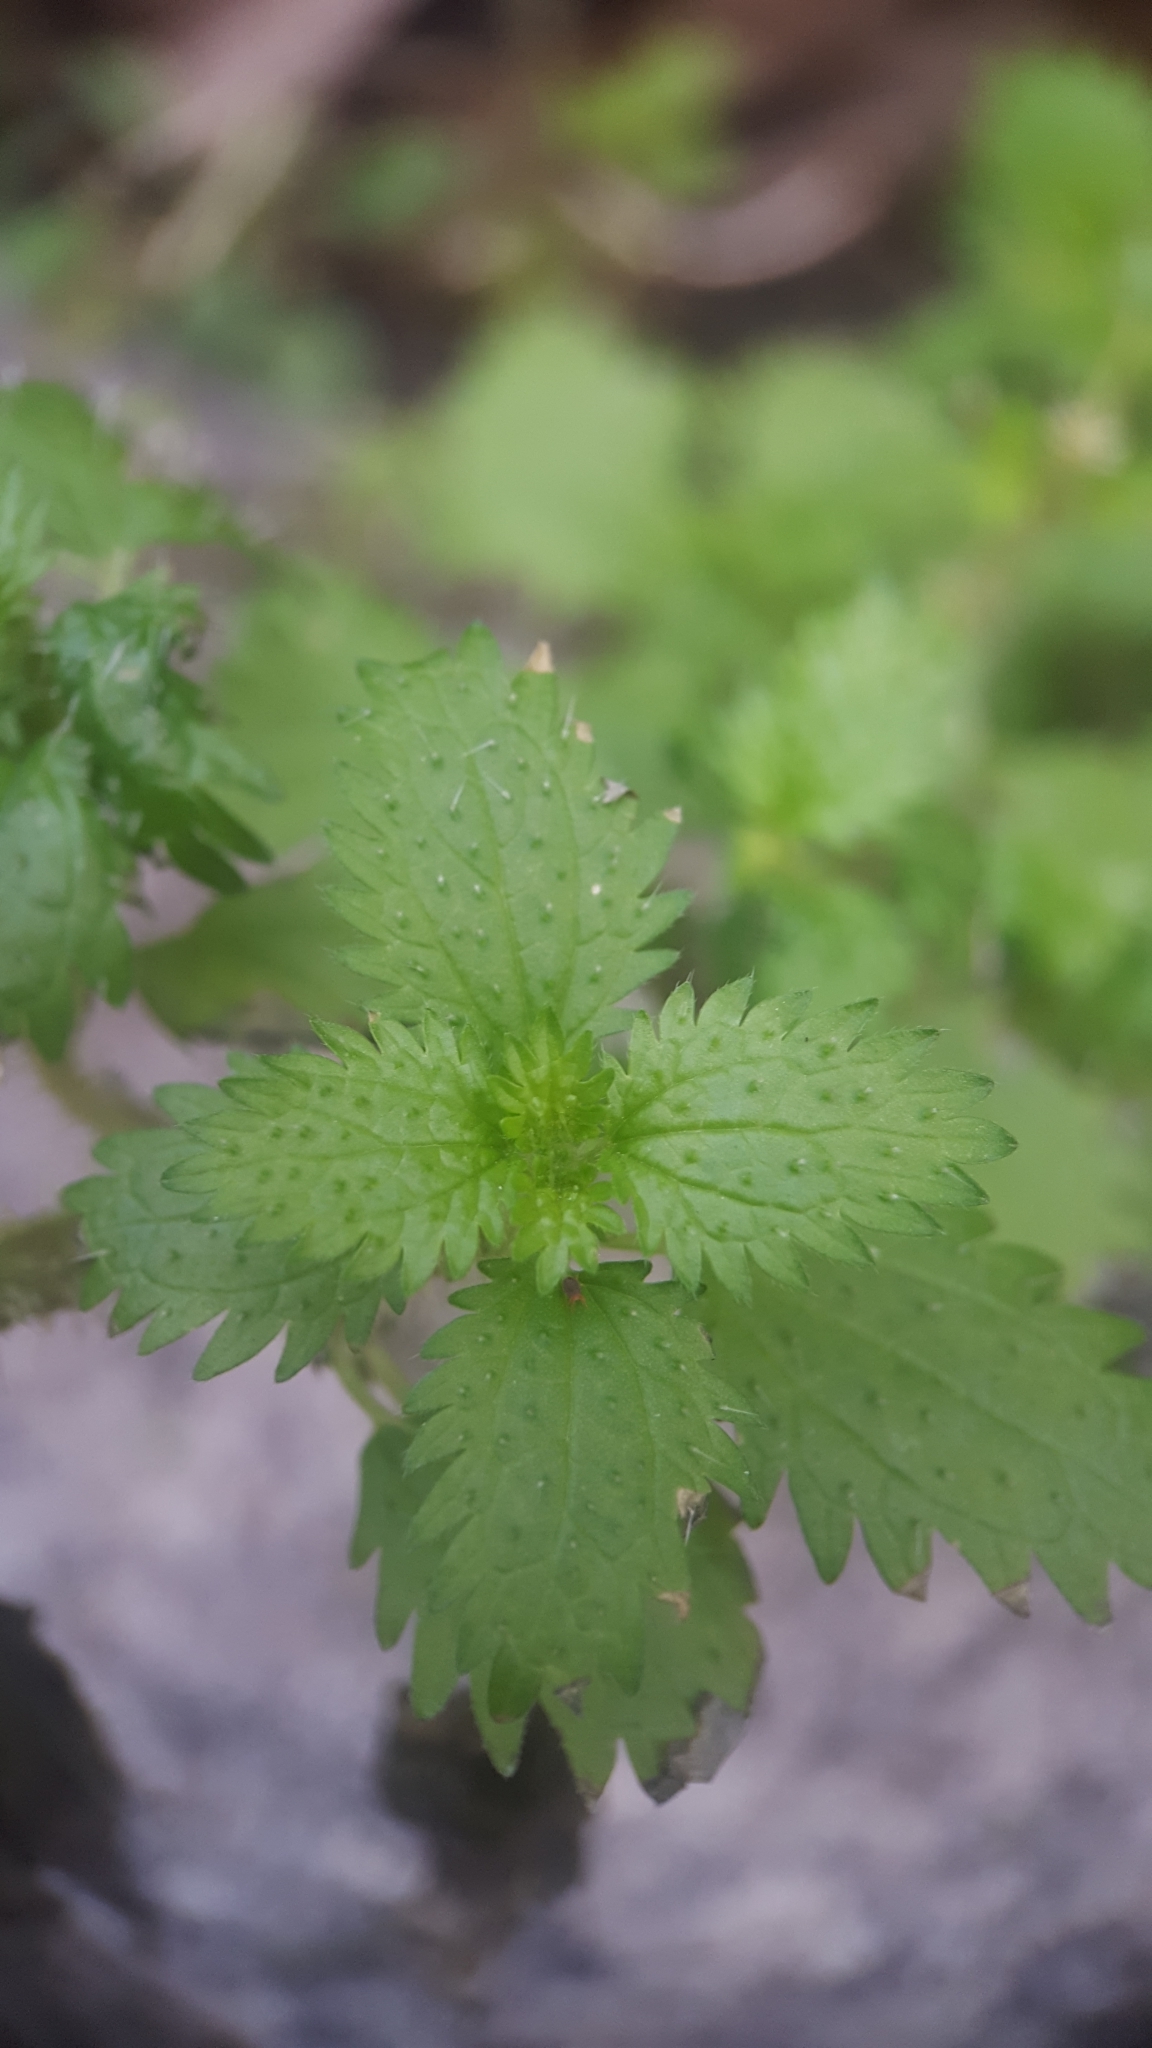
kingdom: Plantae
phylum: Tracheophyta
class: Magnoliopsida
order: Rosales
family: Urticaceae
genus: Urtica
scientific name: Urtica urens
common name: Dwarf nettle
